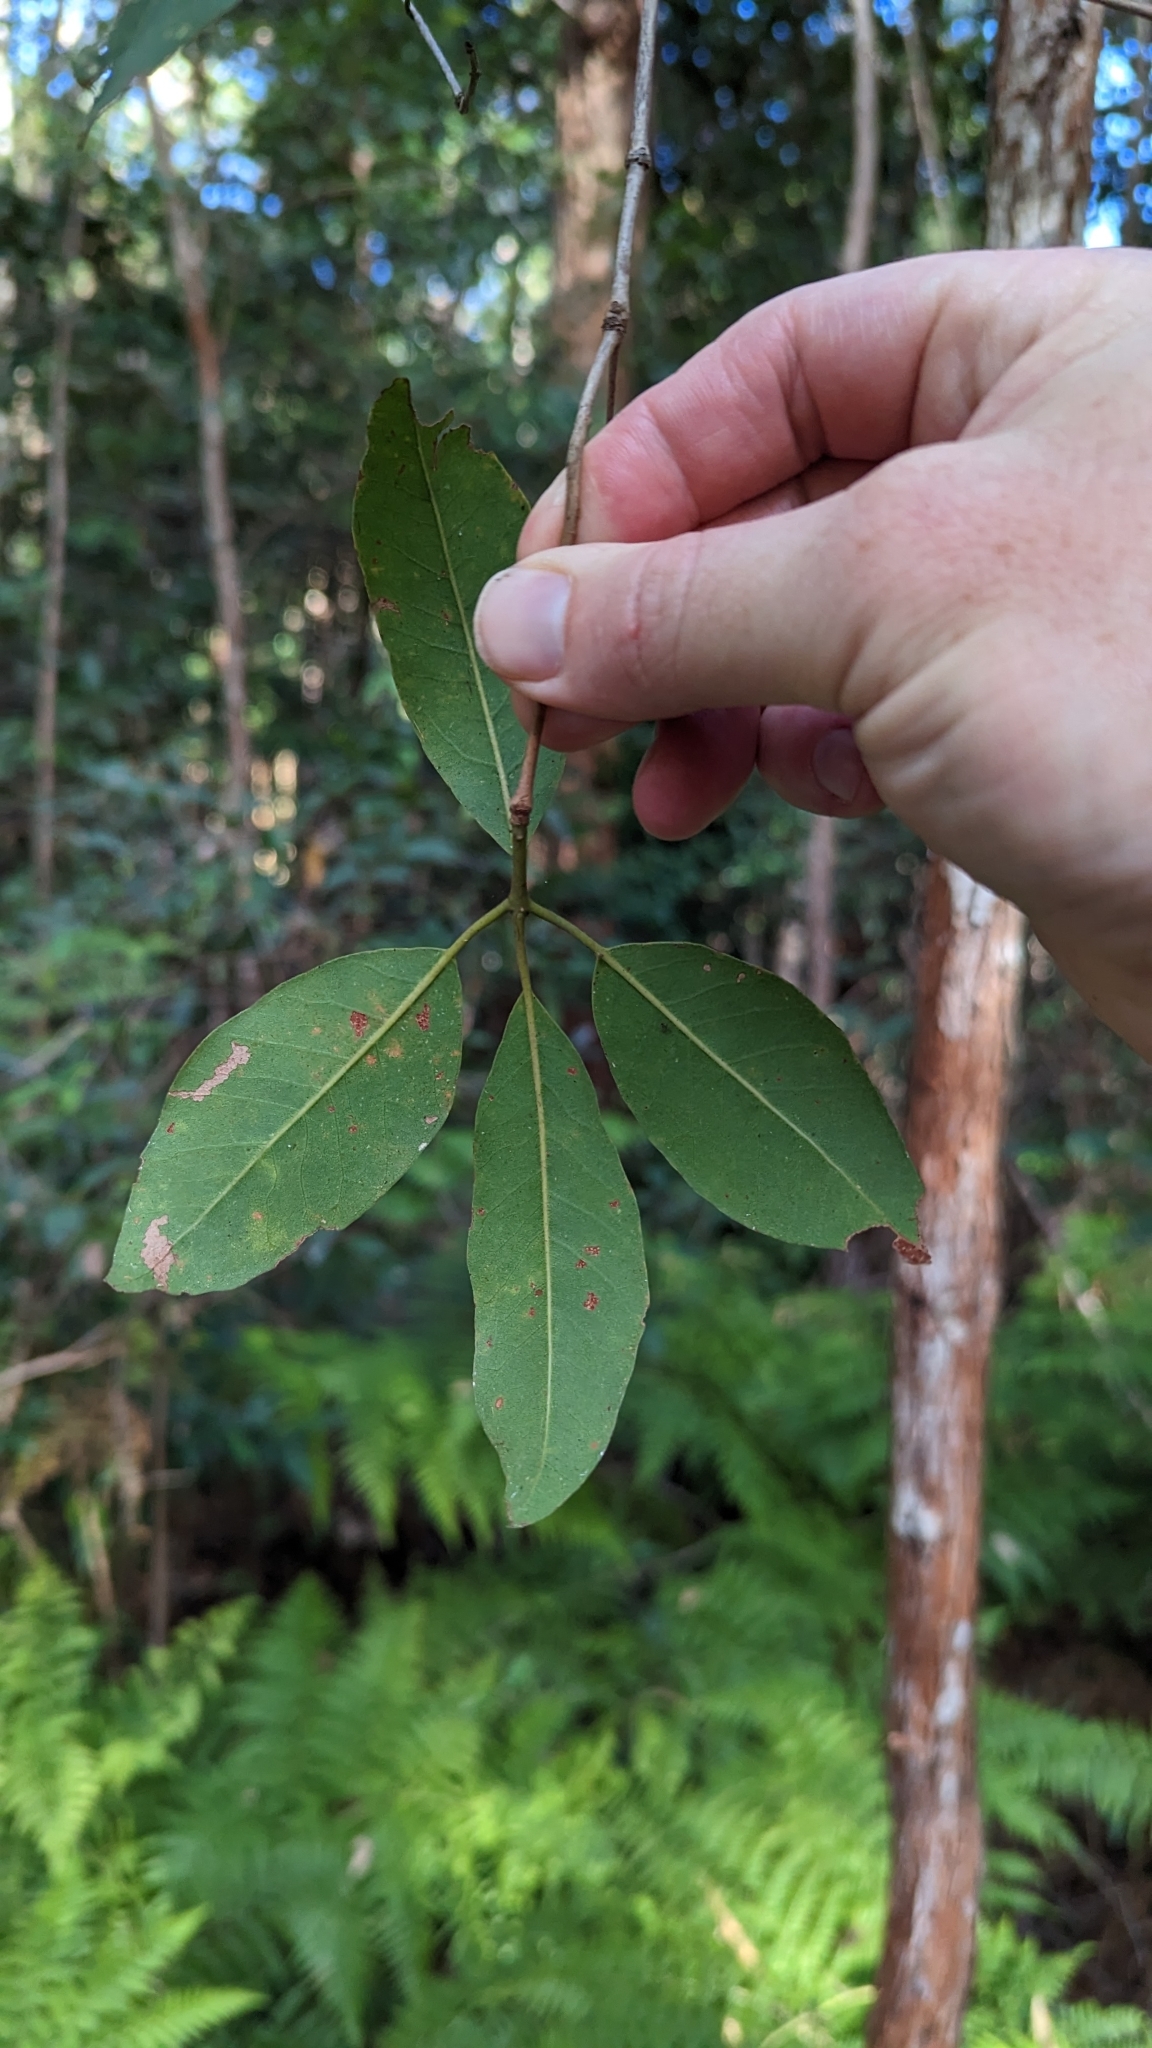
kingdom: Plantae
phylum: Tracheophyta
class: Magnoliopsida
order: Myrtales
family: Myrtaceae
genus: Syncarpia
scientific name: Syncarpia glomulifera
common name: Turpentine tree
